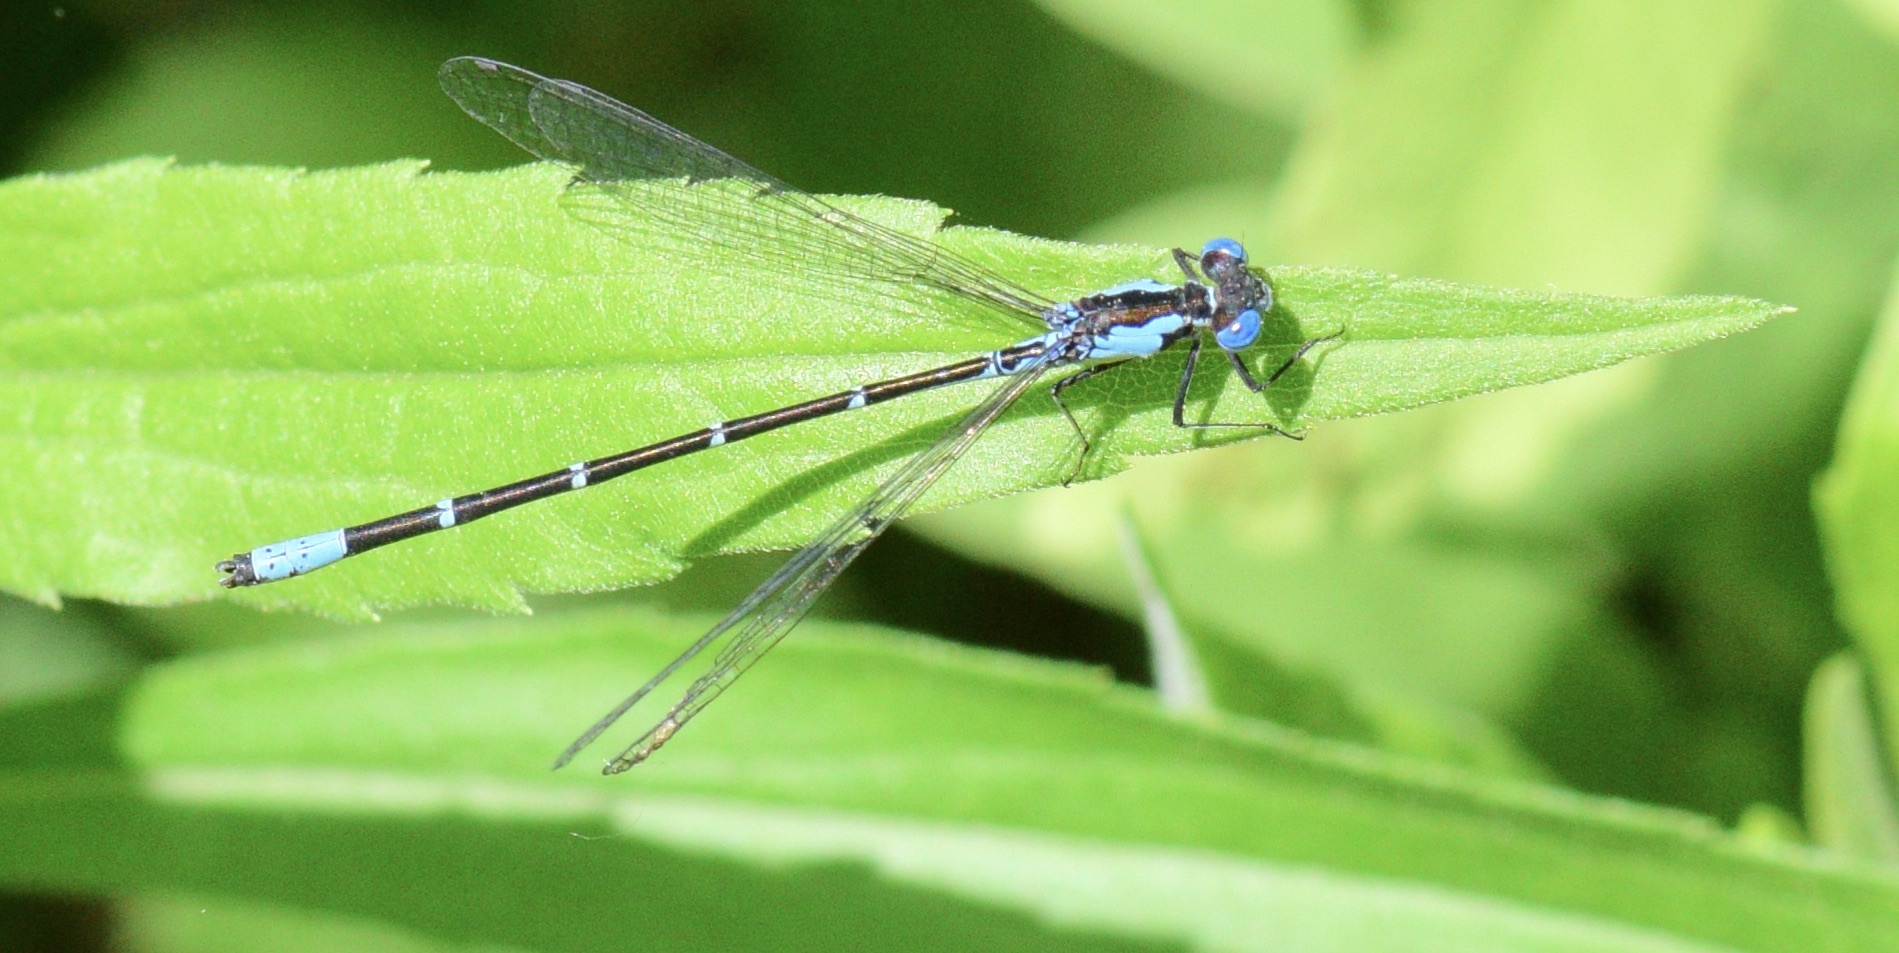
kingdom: Animalia
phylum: Arthropoda
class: Insecta
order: Odonata
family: Coenagrionidae
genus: Chromagrion
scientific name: Chromagrion conditum
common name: Aurora damsel
